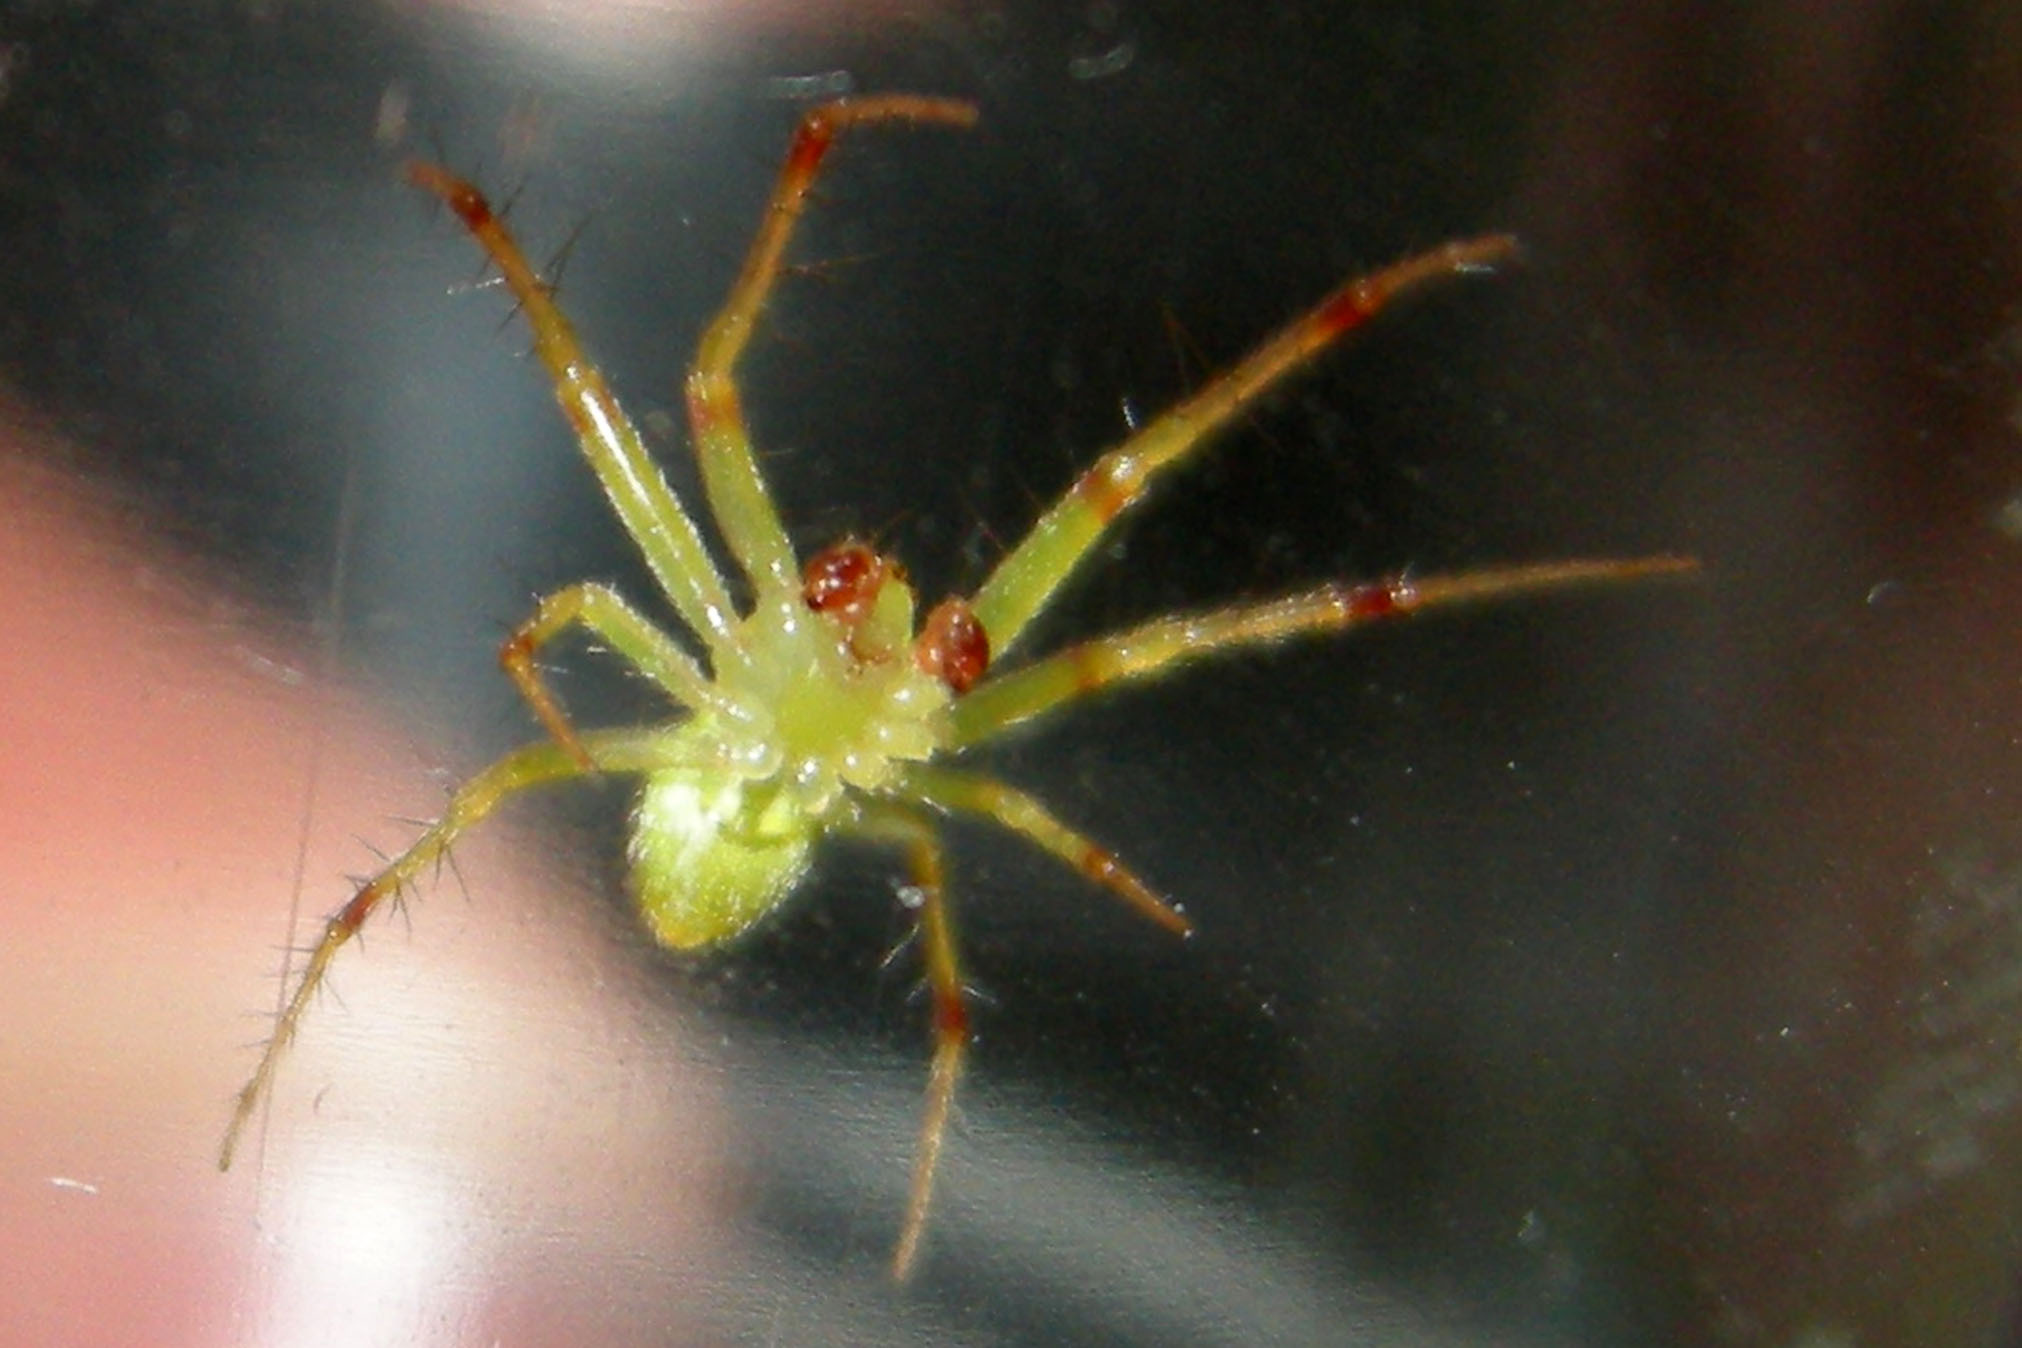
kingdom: Animalia
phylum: Arthropoda
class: Arachnida
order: Araneae
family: Araneidae
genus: Araneus
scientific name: Araneus cingulatus
